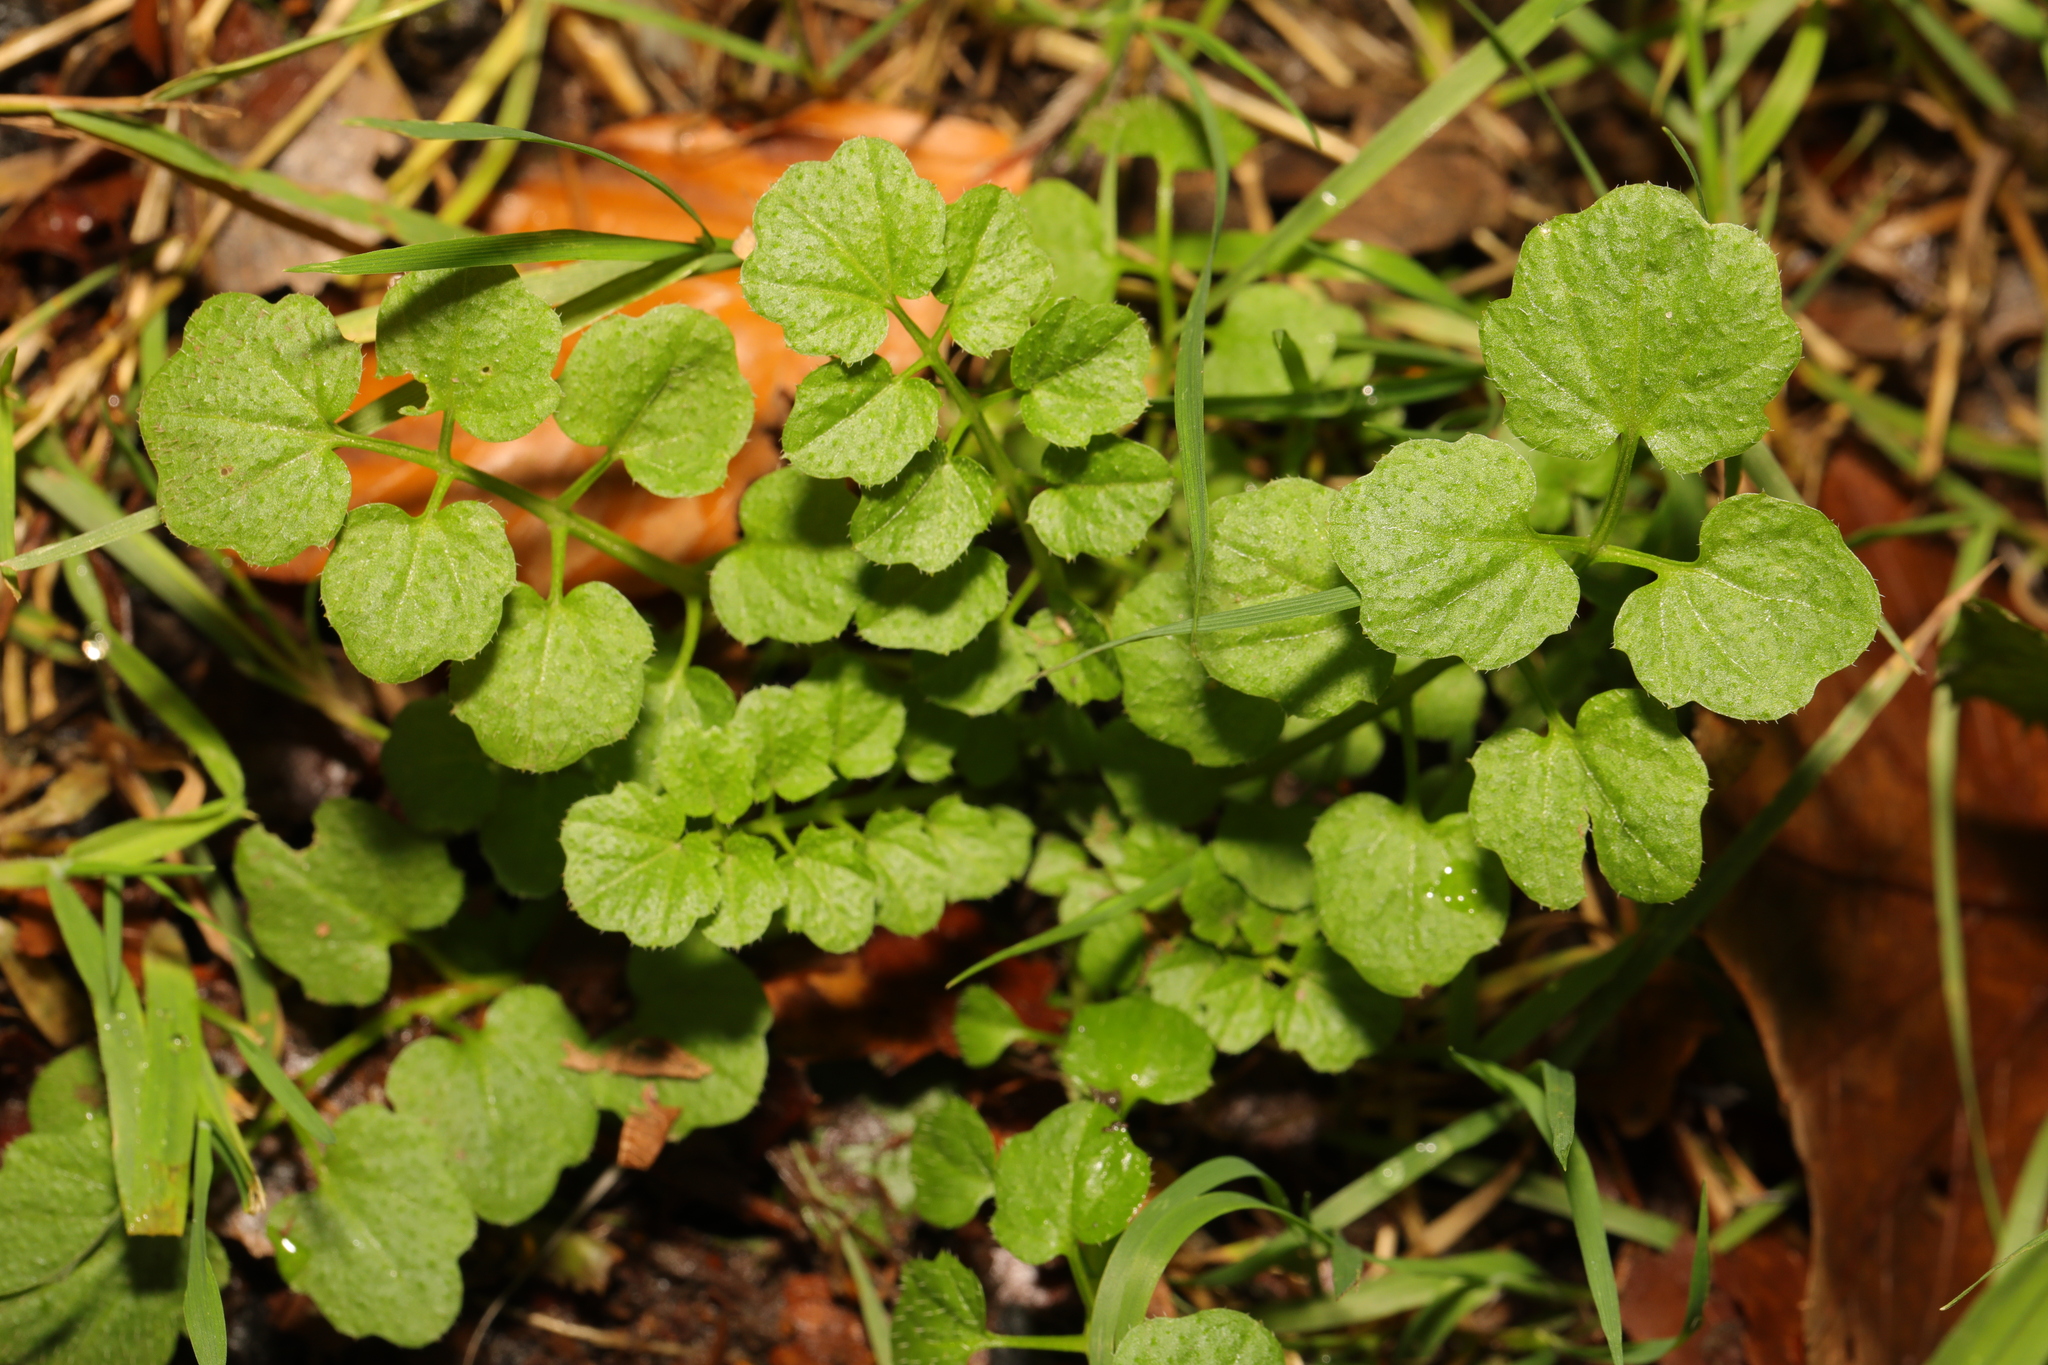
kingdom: Plantae
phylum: Tracheophyta
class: Magnoliopsida
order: Brassicales
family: Brassicaceae
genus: Cardamine
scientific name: Cardamine flexuosa
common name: Woodland bittercress
